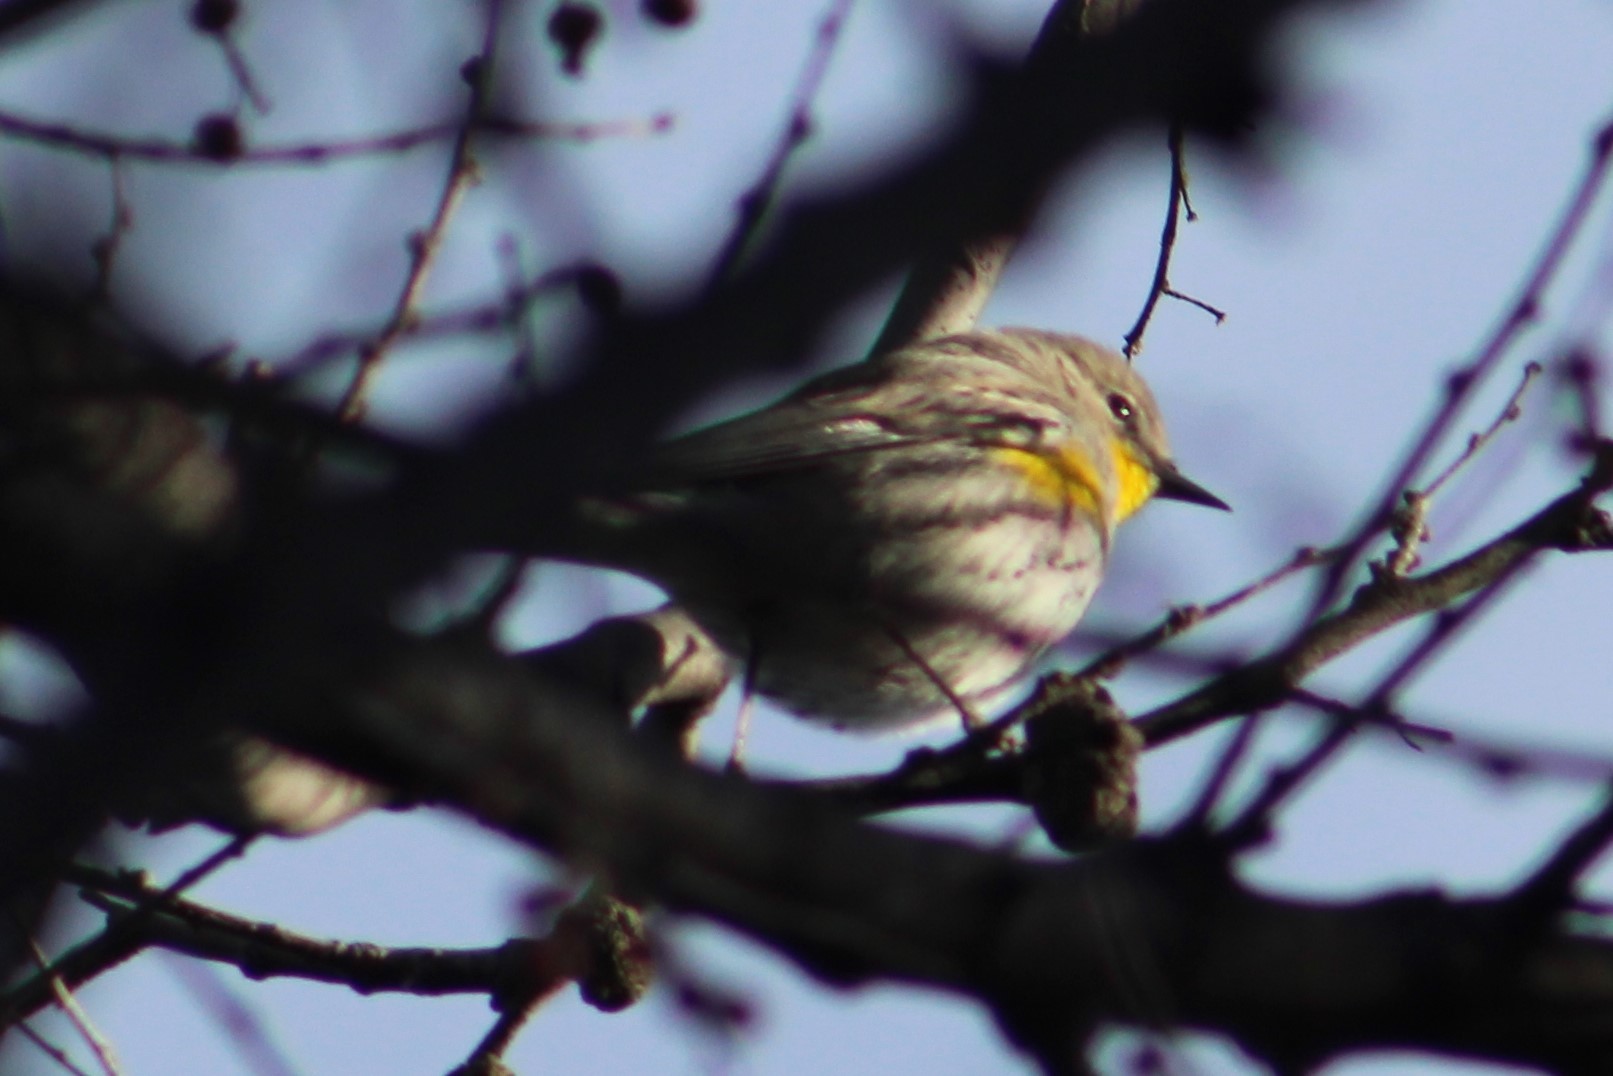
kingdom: Animalia
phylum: Chordata
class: Aves
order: Passeriformes
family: Parulidae
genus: Setophaga
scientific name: Setophaga coronata
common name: Myrtle warbler
